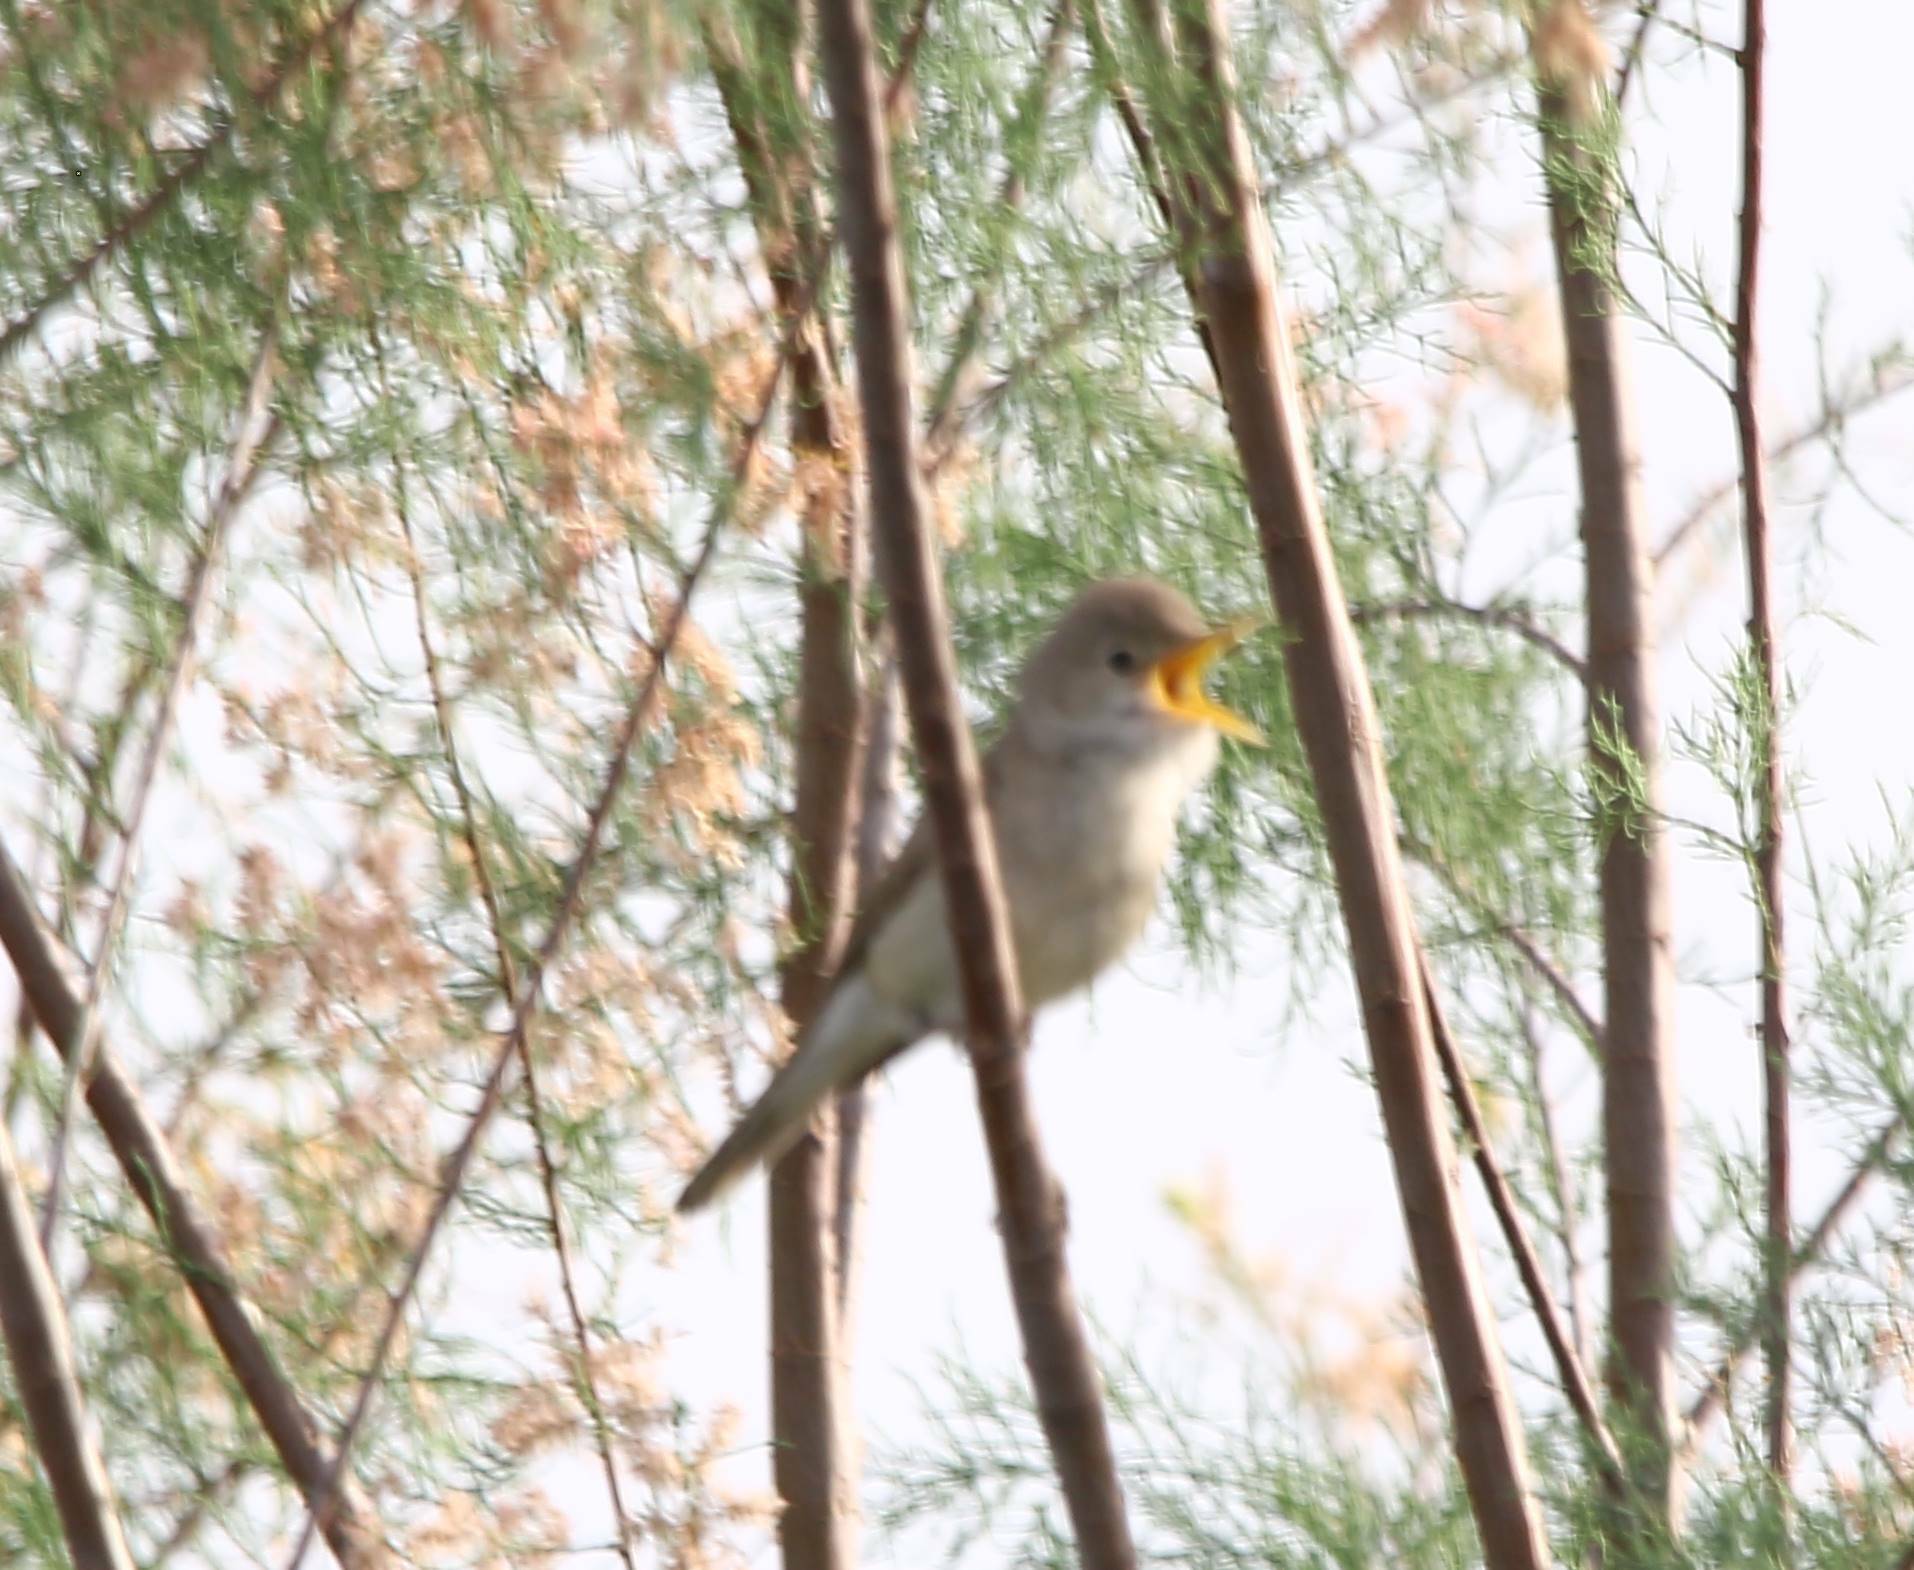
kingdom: Animalia
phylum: Chordata
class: Aves
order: Passeriformes
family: Acrocephalidae
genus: Acrocephalus
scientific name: Acrocephalus scirpaceus
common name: Eurasian reed warbler
